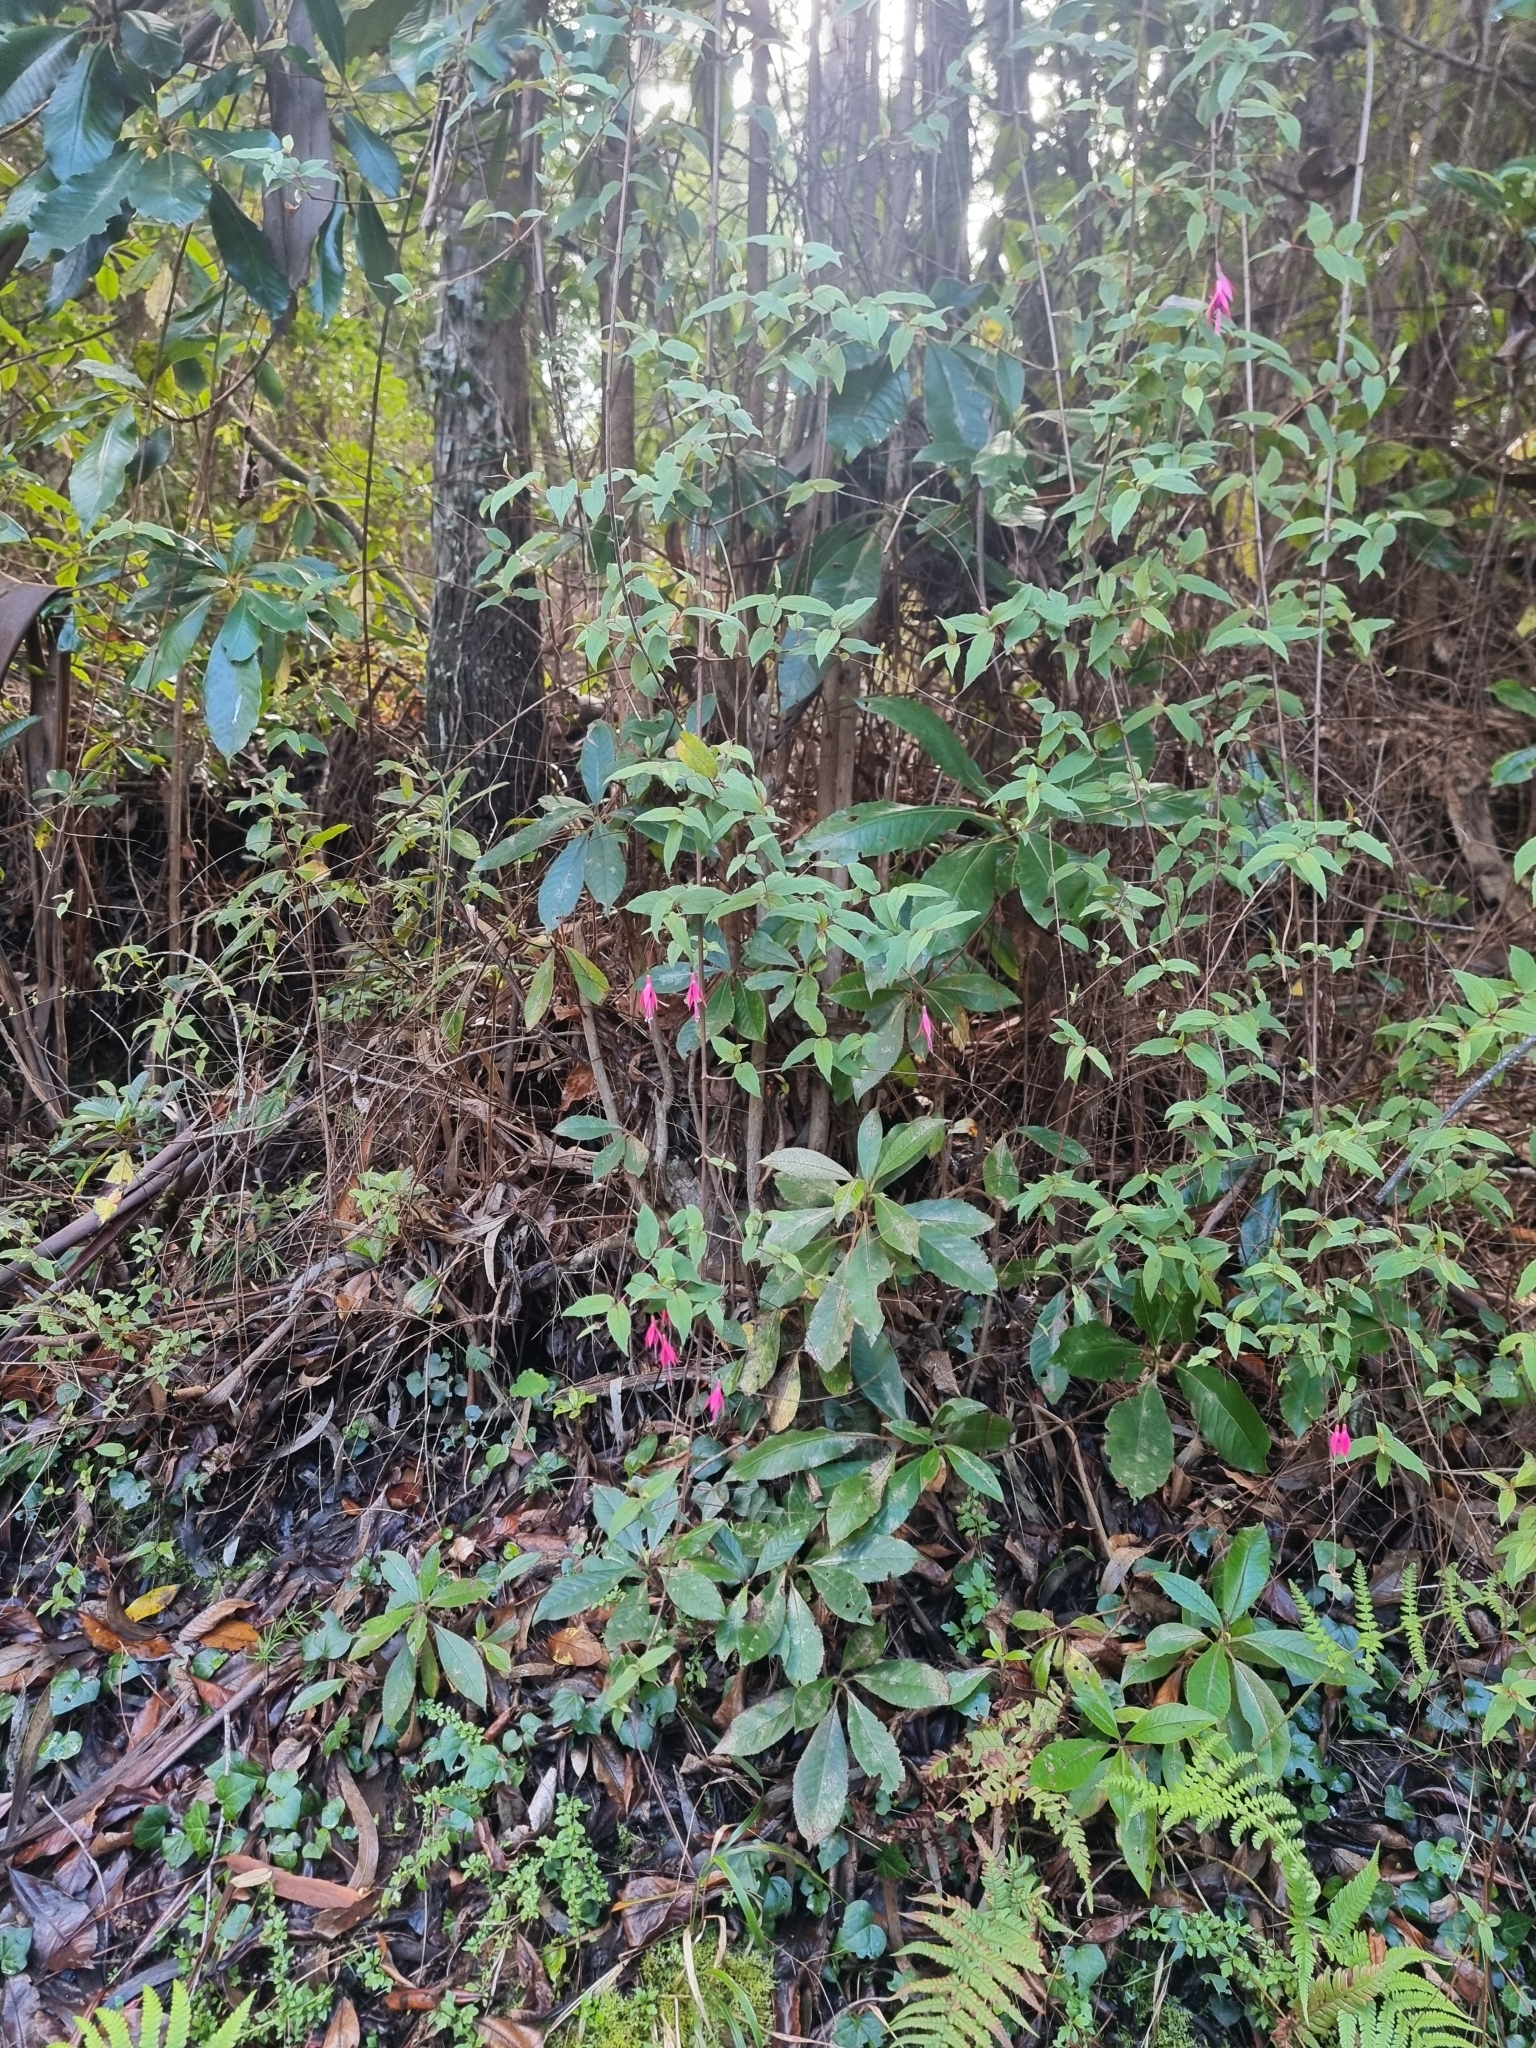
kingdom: Plantae
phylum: Tracheophyta
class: Magnoliopsida
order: Myrtales
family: Onagraceae
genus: Fuchsia
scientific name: Fuchsia magellanica
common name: Hardy fuchsia
